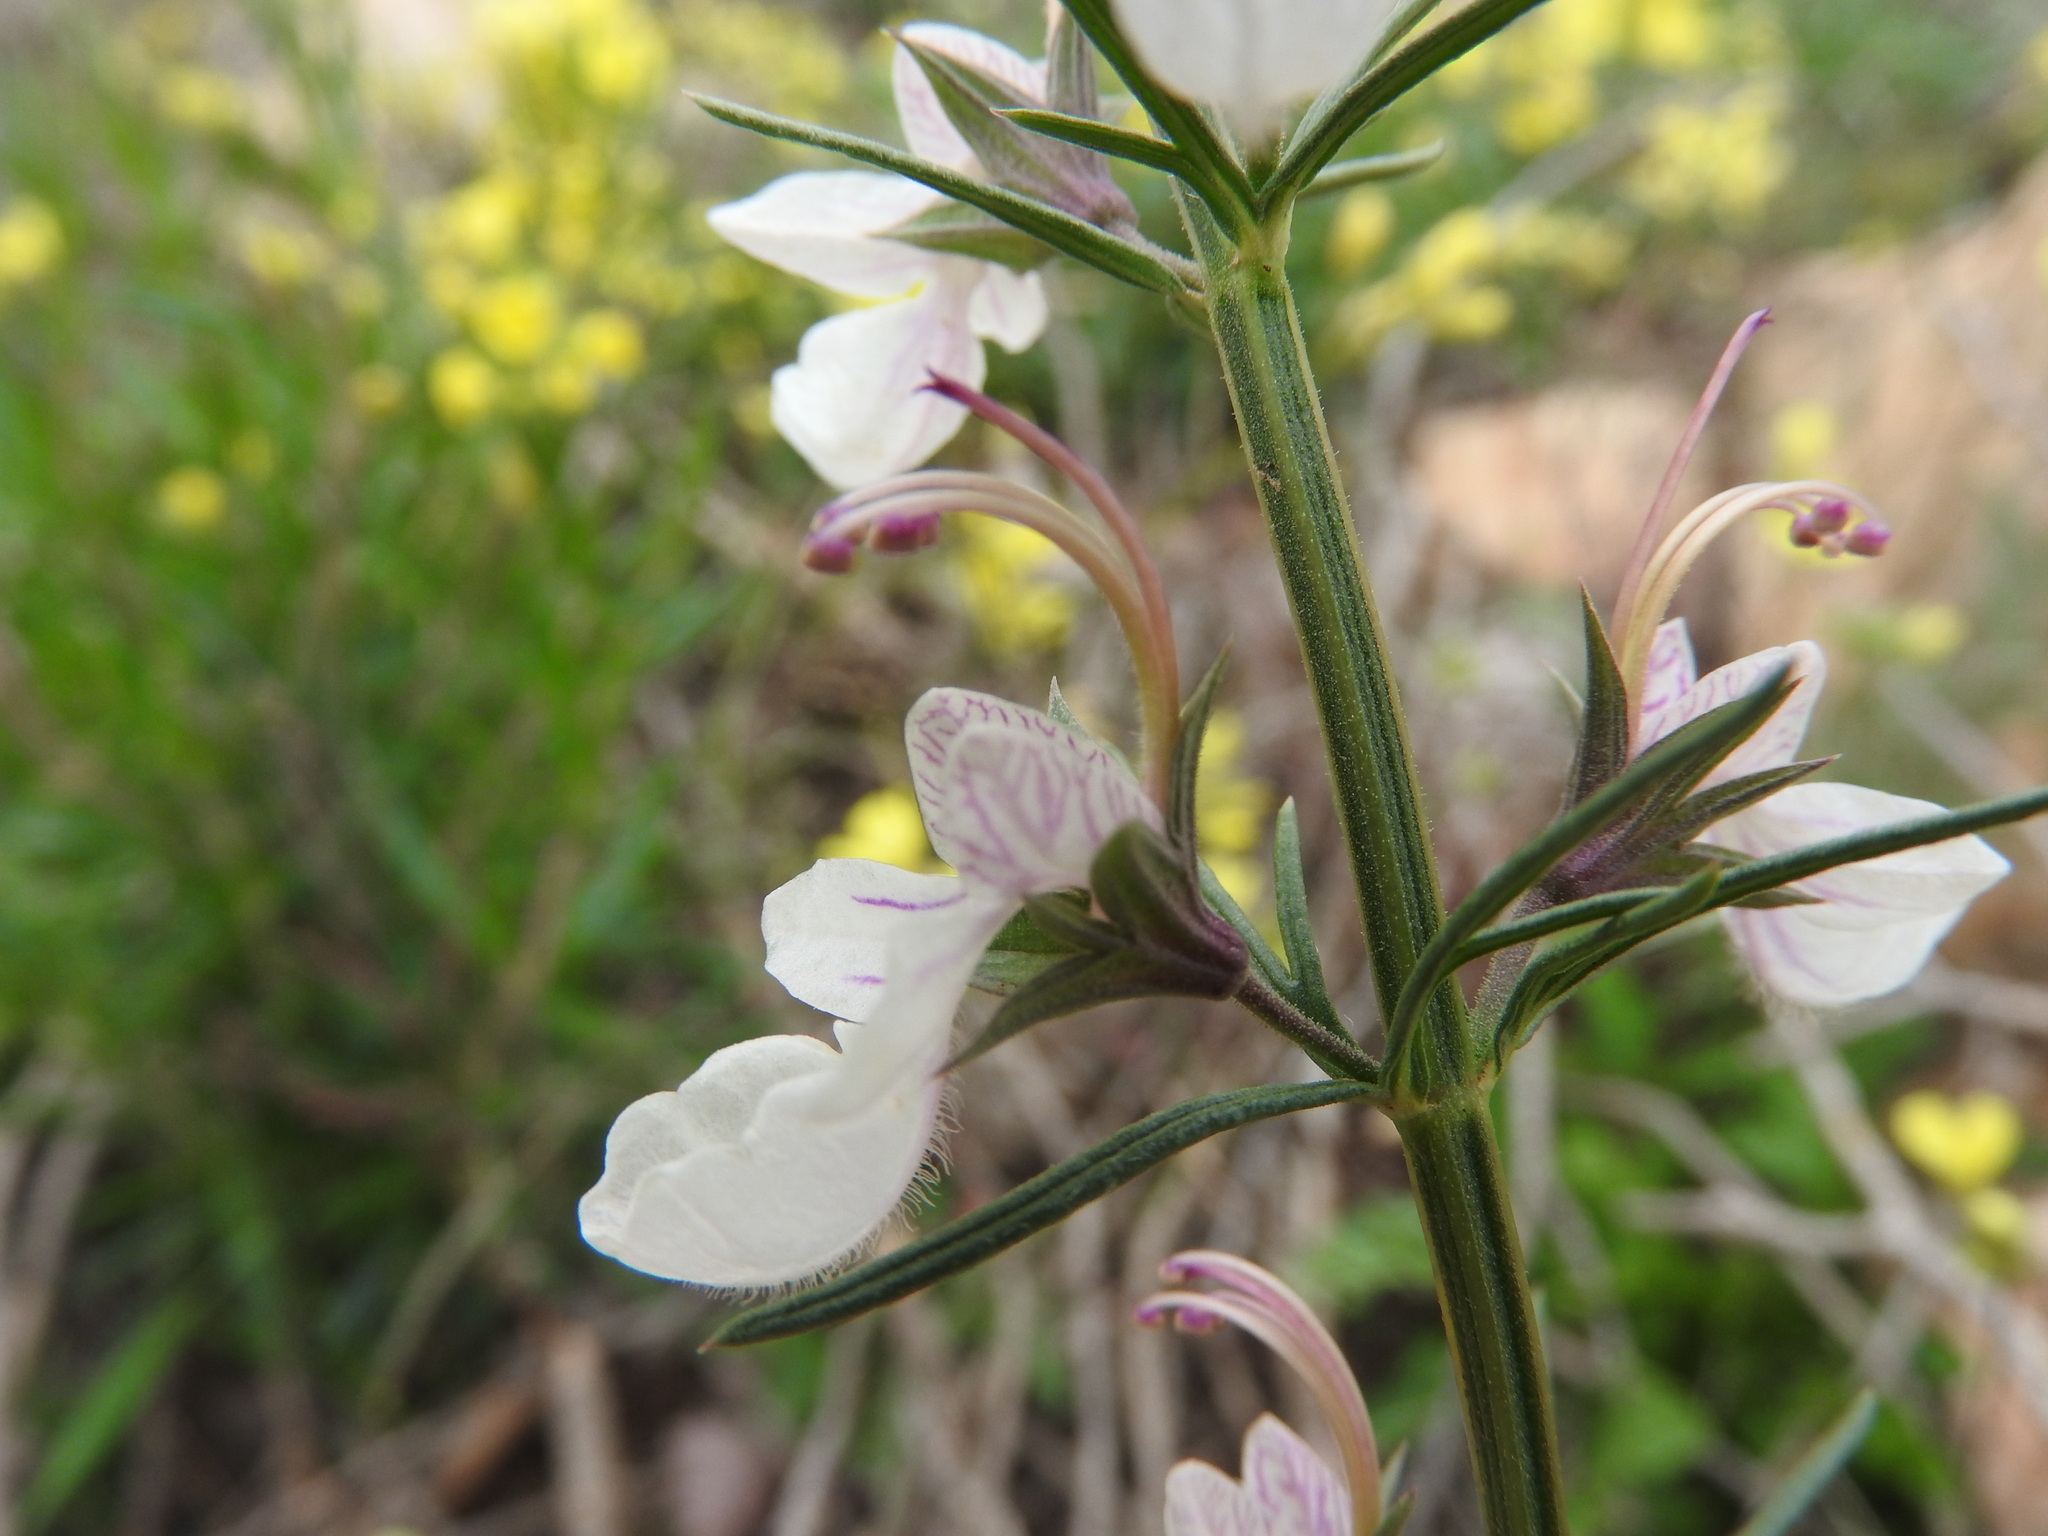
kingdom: Plantae
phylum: Tracheophyta
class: Magnoliopsida
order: Lamiales
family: Lamiaceae
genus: Teucrium
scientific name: Teucrium pseudochamaepitys
